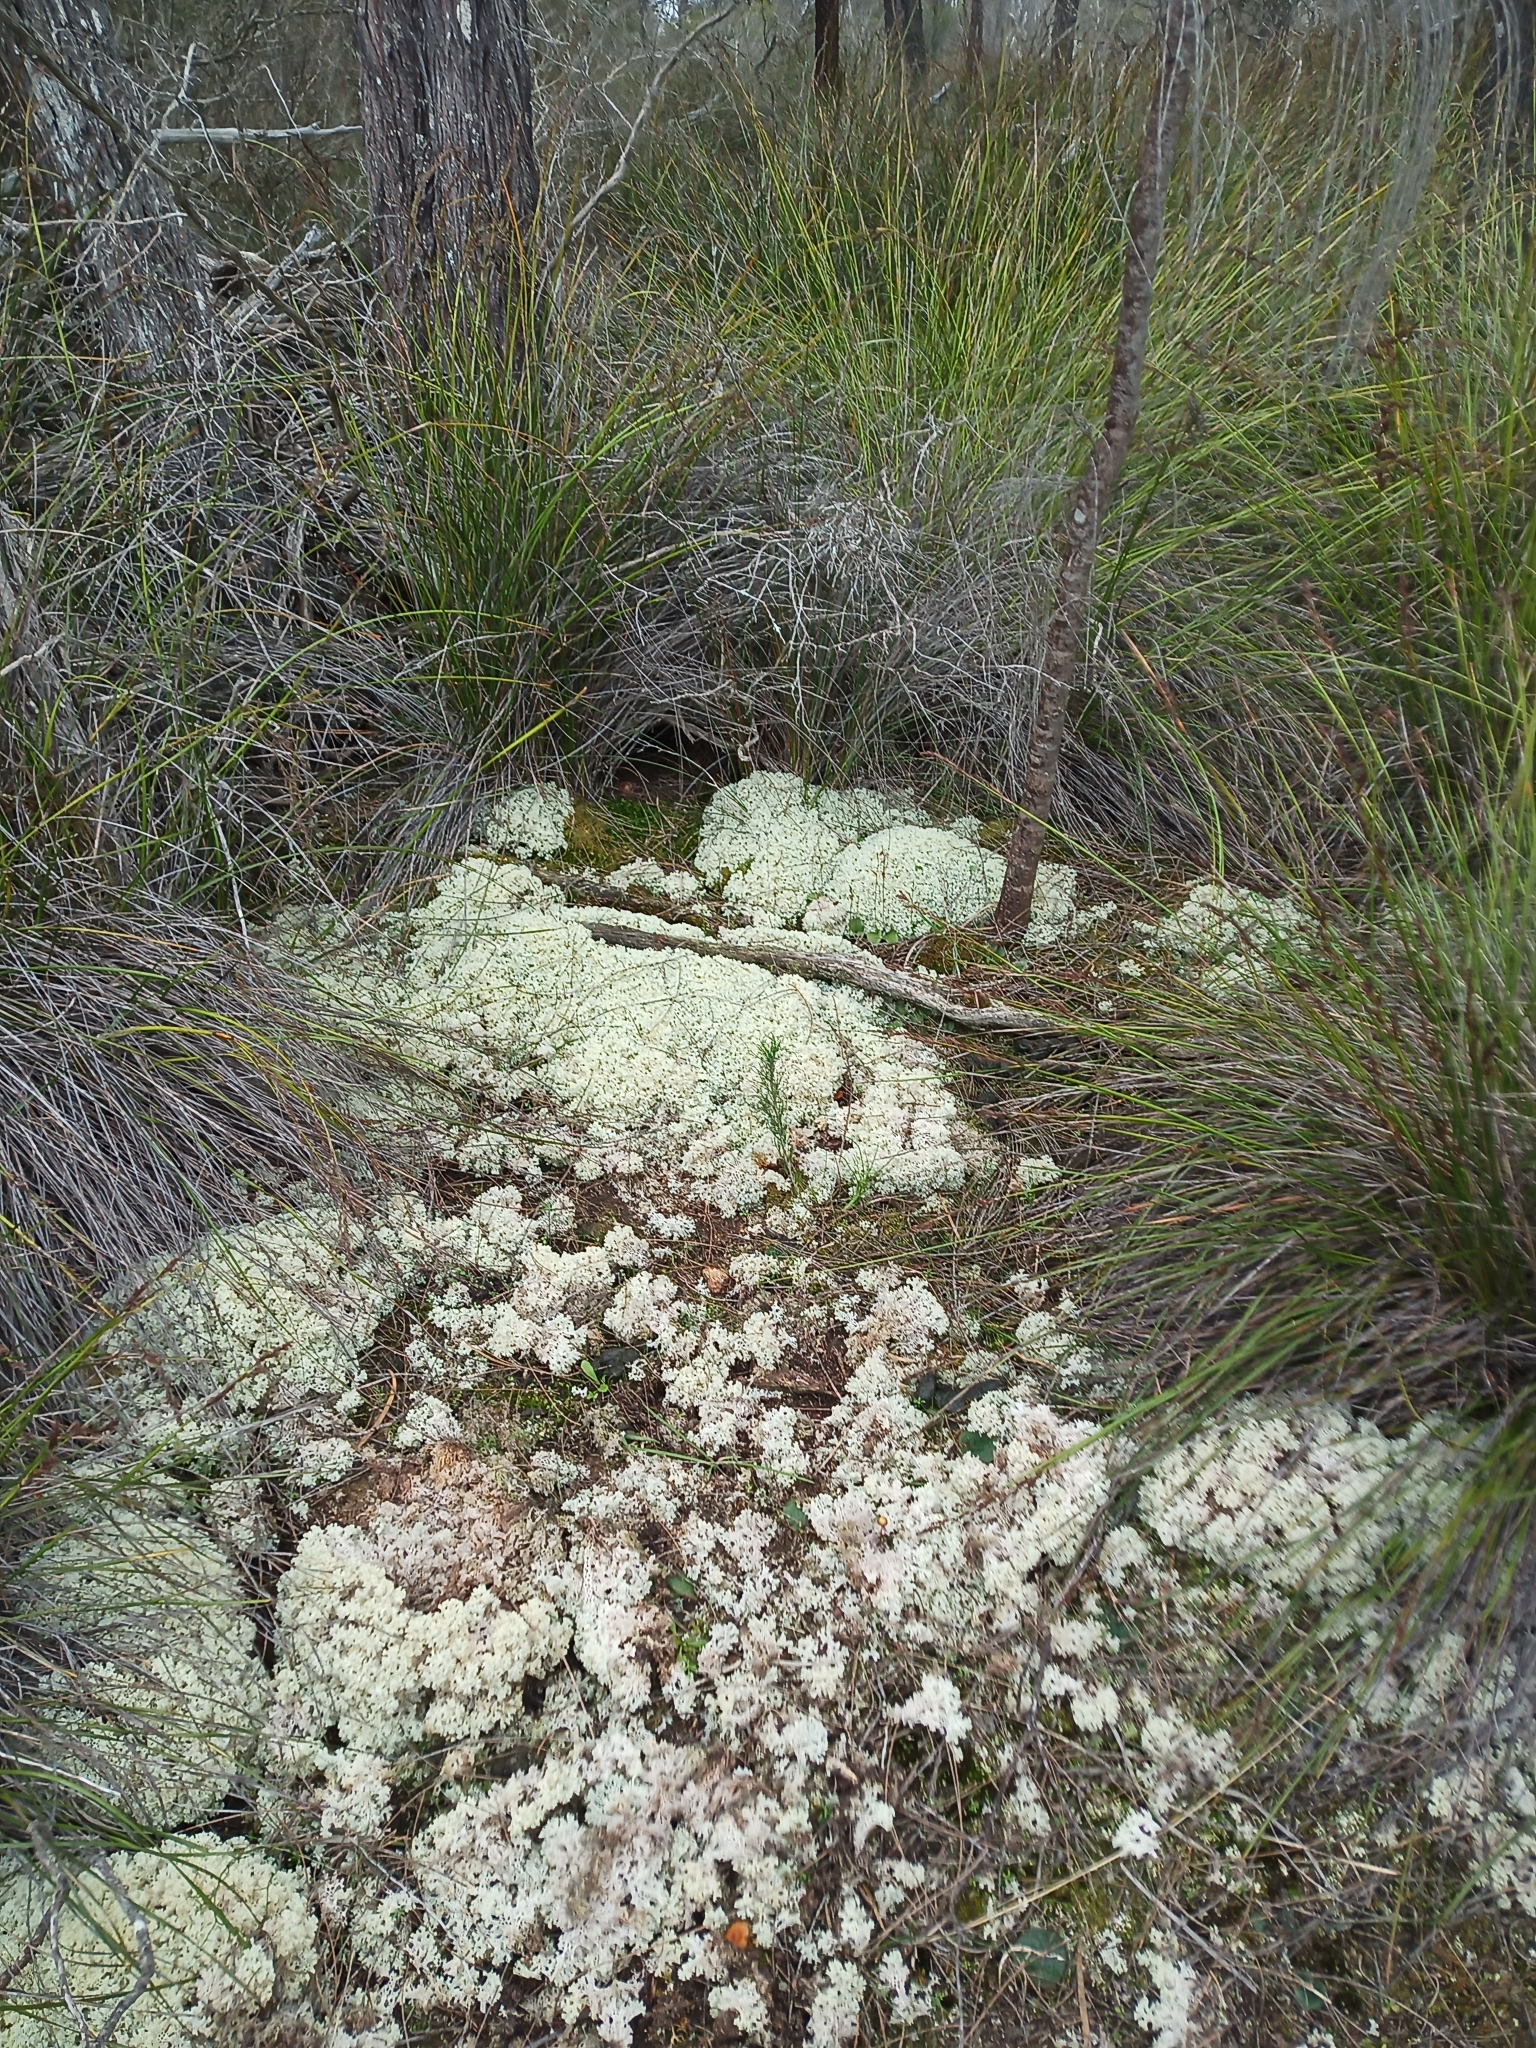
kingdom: Plantae
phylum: Tracheophyta
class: Liliopsida
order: Asparagales
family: Orchidaceae
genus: Cyrtostylis
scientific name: Cyrtostylis robusta
